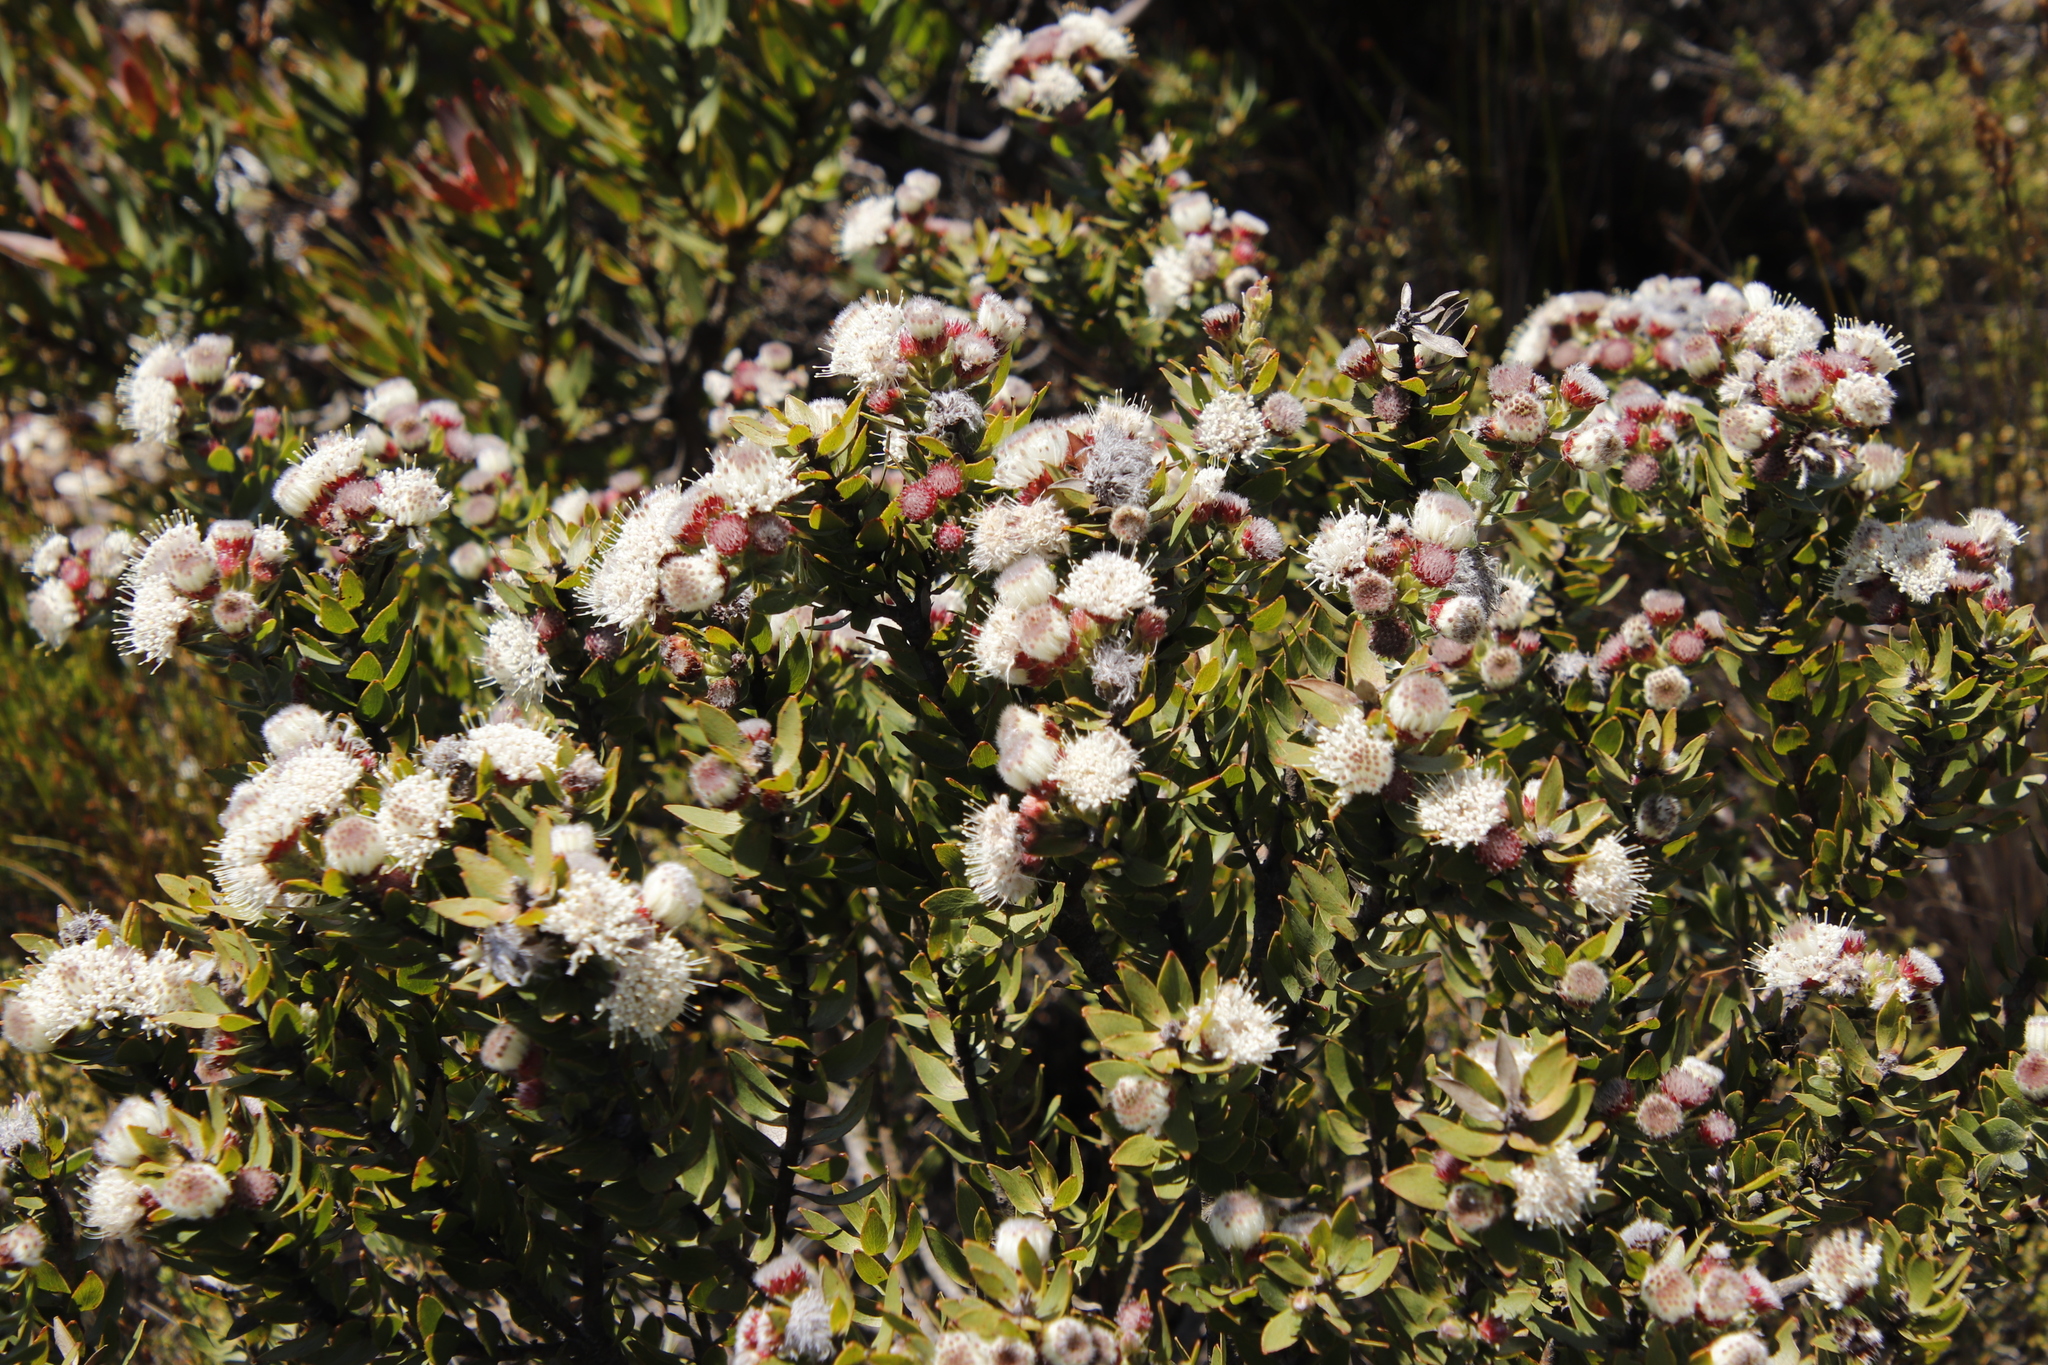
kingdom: Plantae
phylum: Tracheophyta
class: Magnoliopsida
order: Proteales
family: Proteaceae
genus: Leucospermum
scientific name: Leucospermum bolusii
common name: Gordon's bay pincushion
